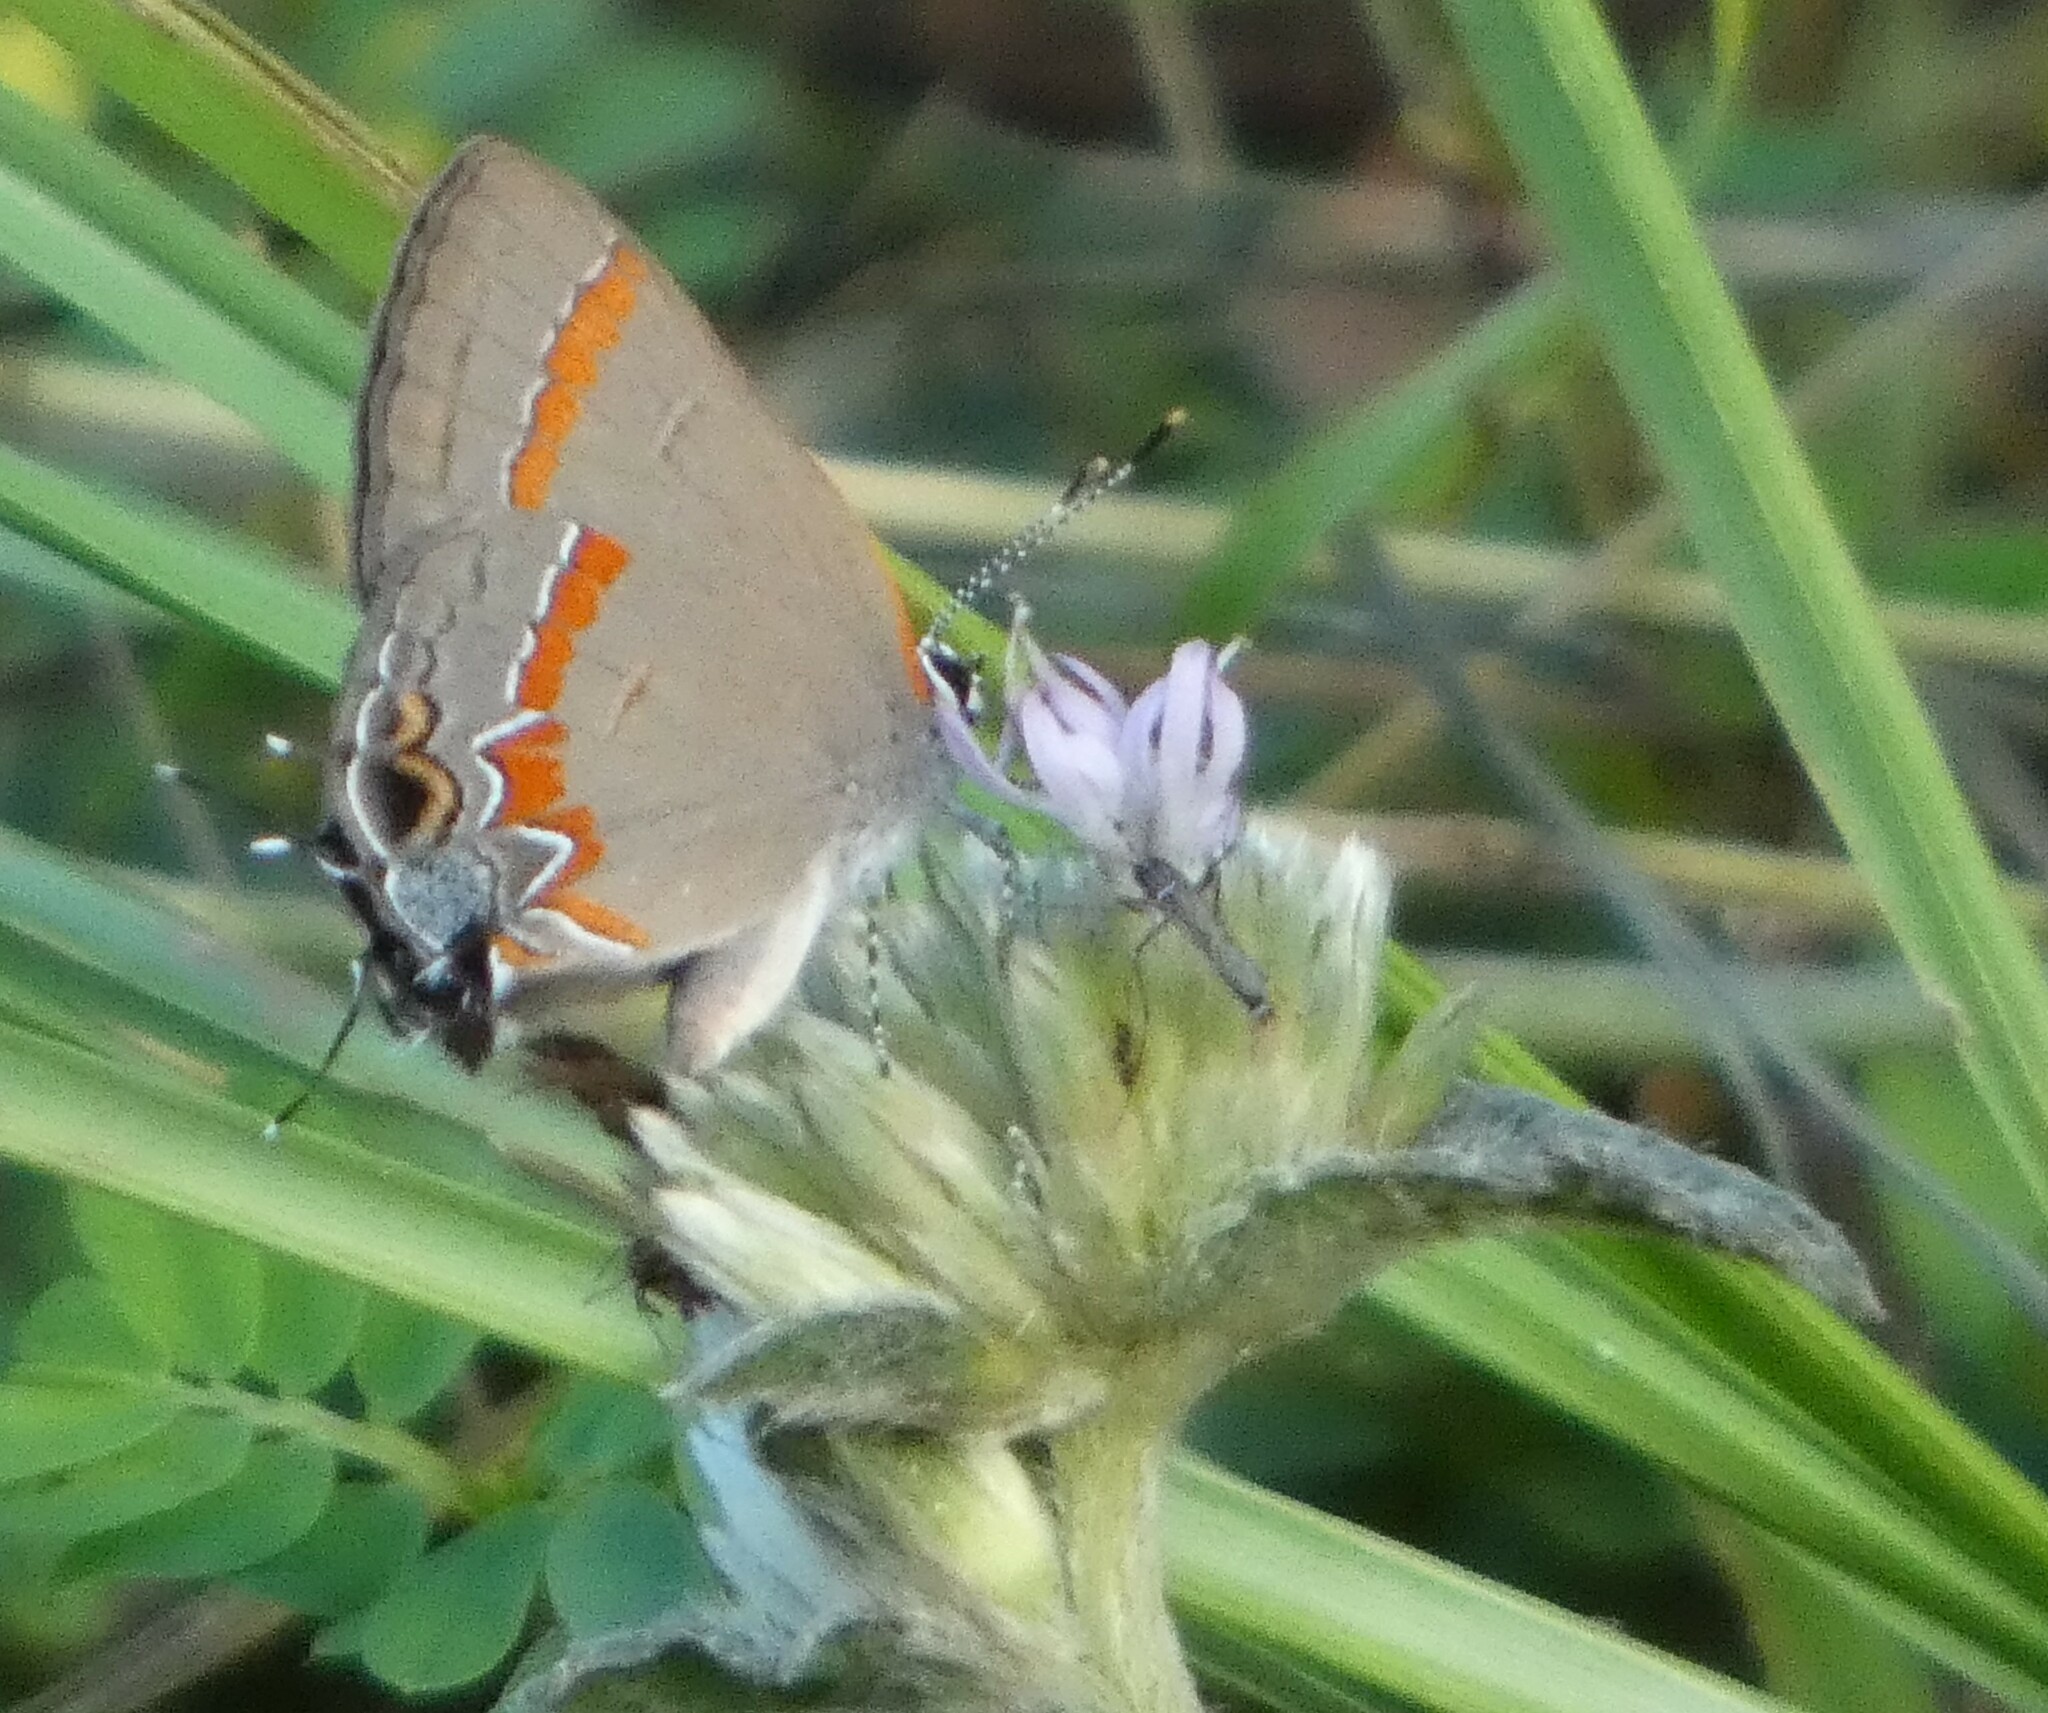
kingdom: Animalia
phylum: Arthropoda
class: Insecta
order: Lepidoptera
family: Lycaenidae
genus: Calycopis
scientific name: Calycopis cecrops
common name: Red-banded hairstreak
